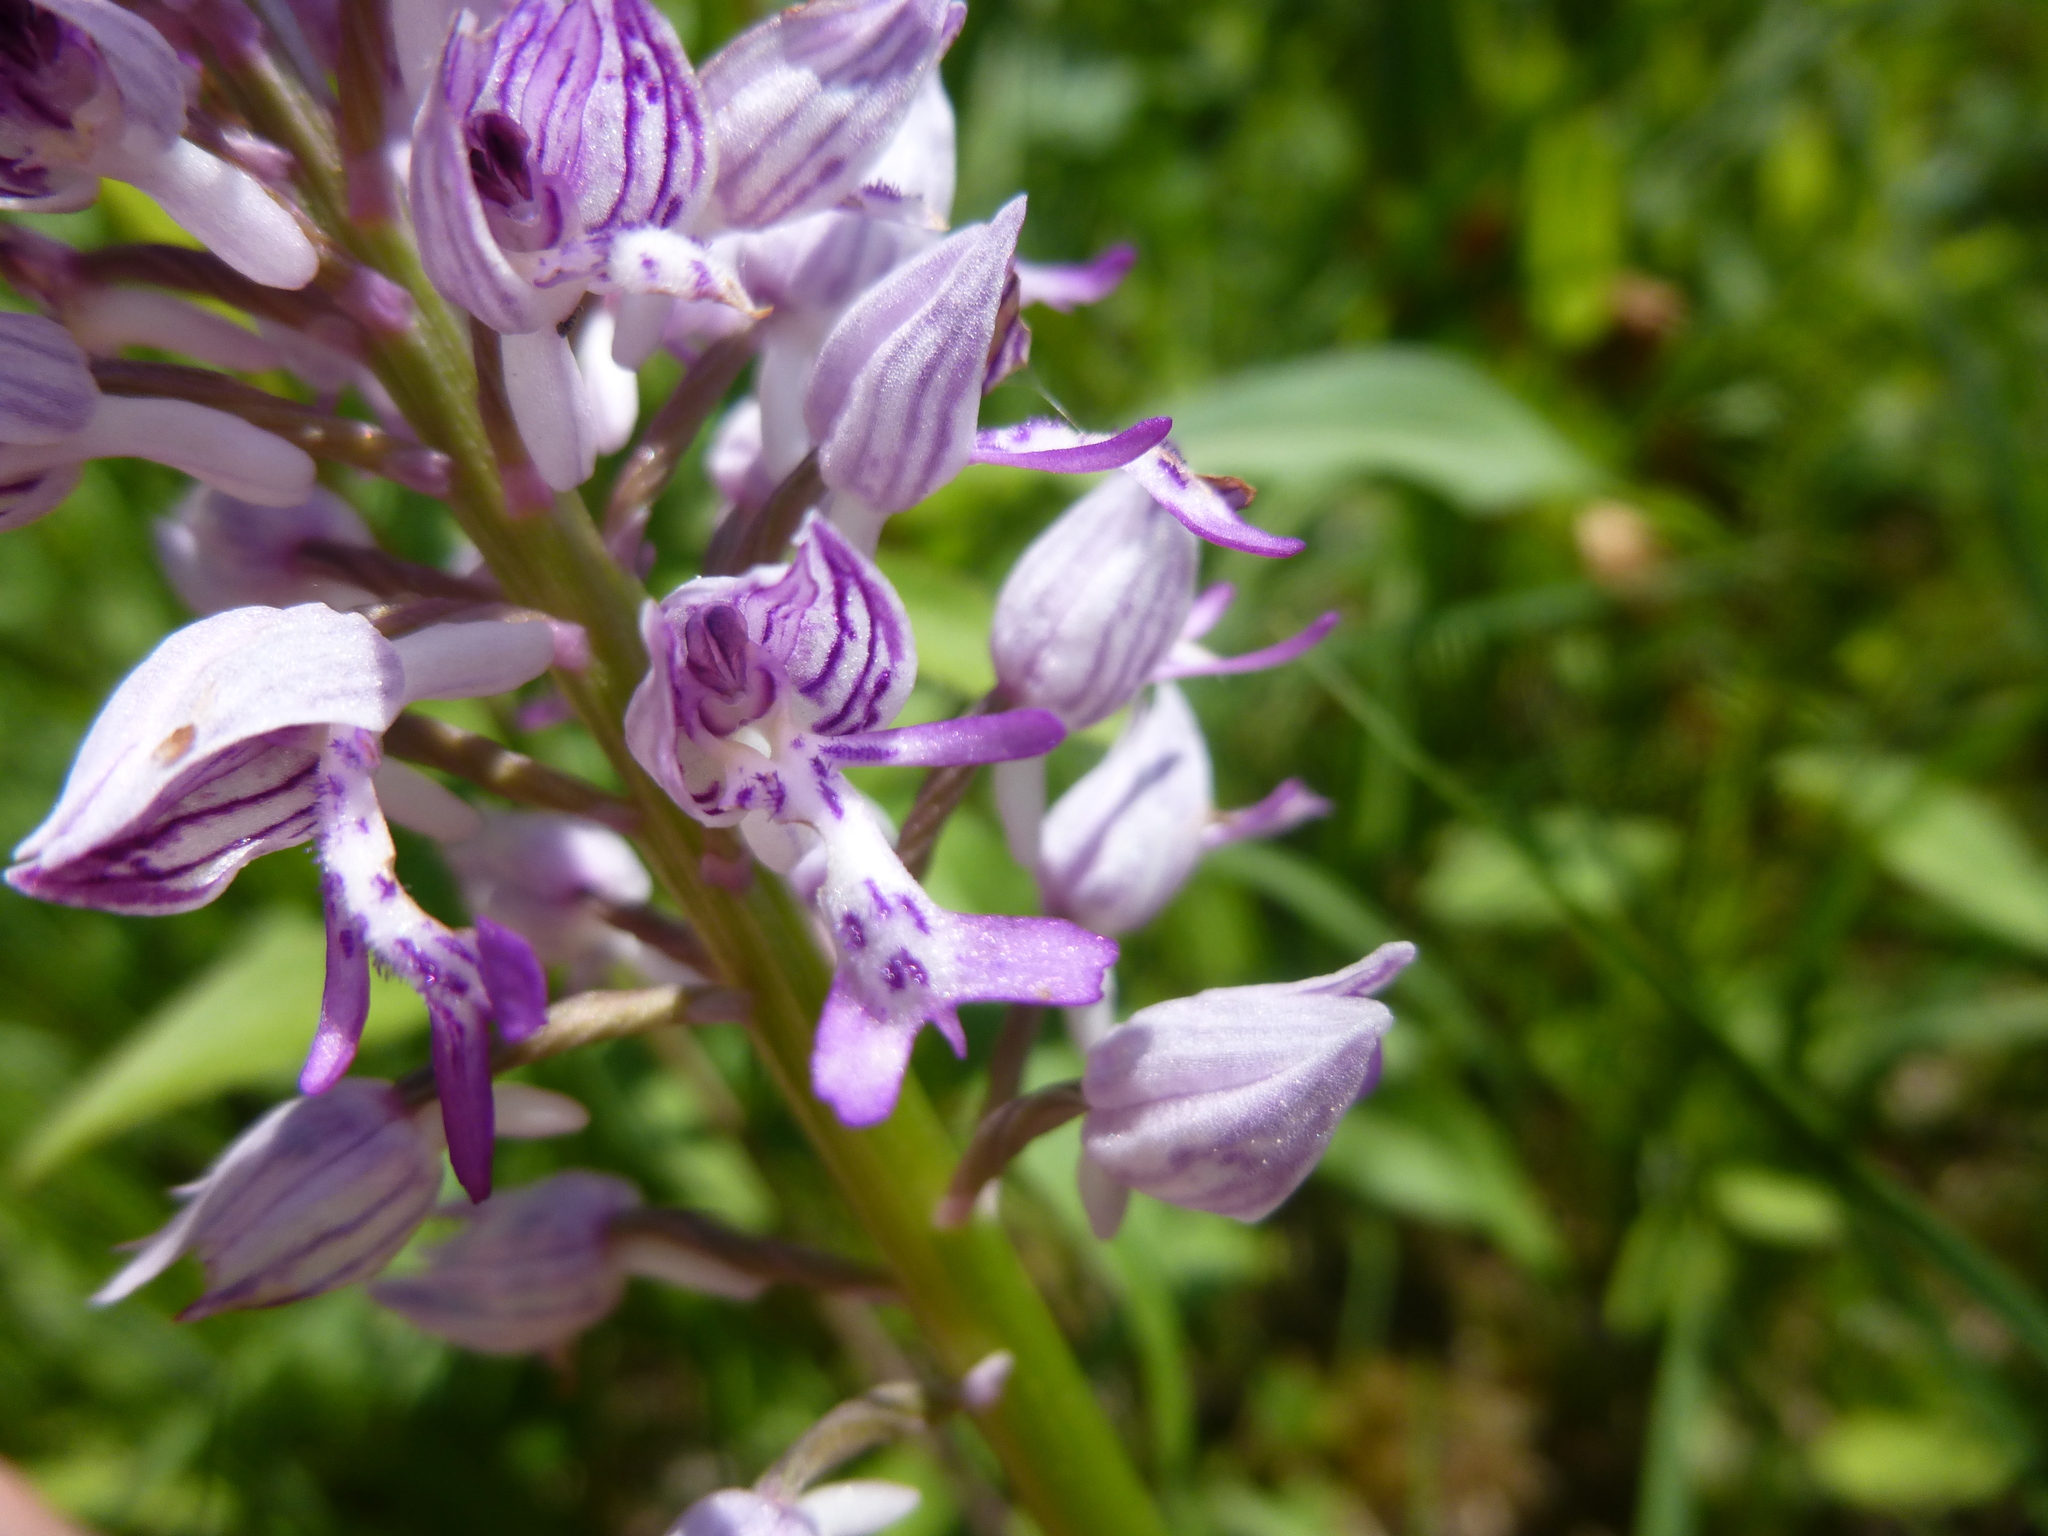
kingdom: Plantae
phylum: Tracheophyta
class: Liliopsida
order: Asparagales
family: Orchidaceae
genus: Orchis
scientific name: Orchis militaris
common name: Military orchid
